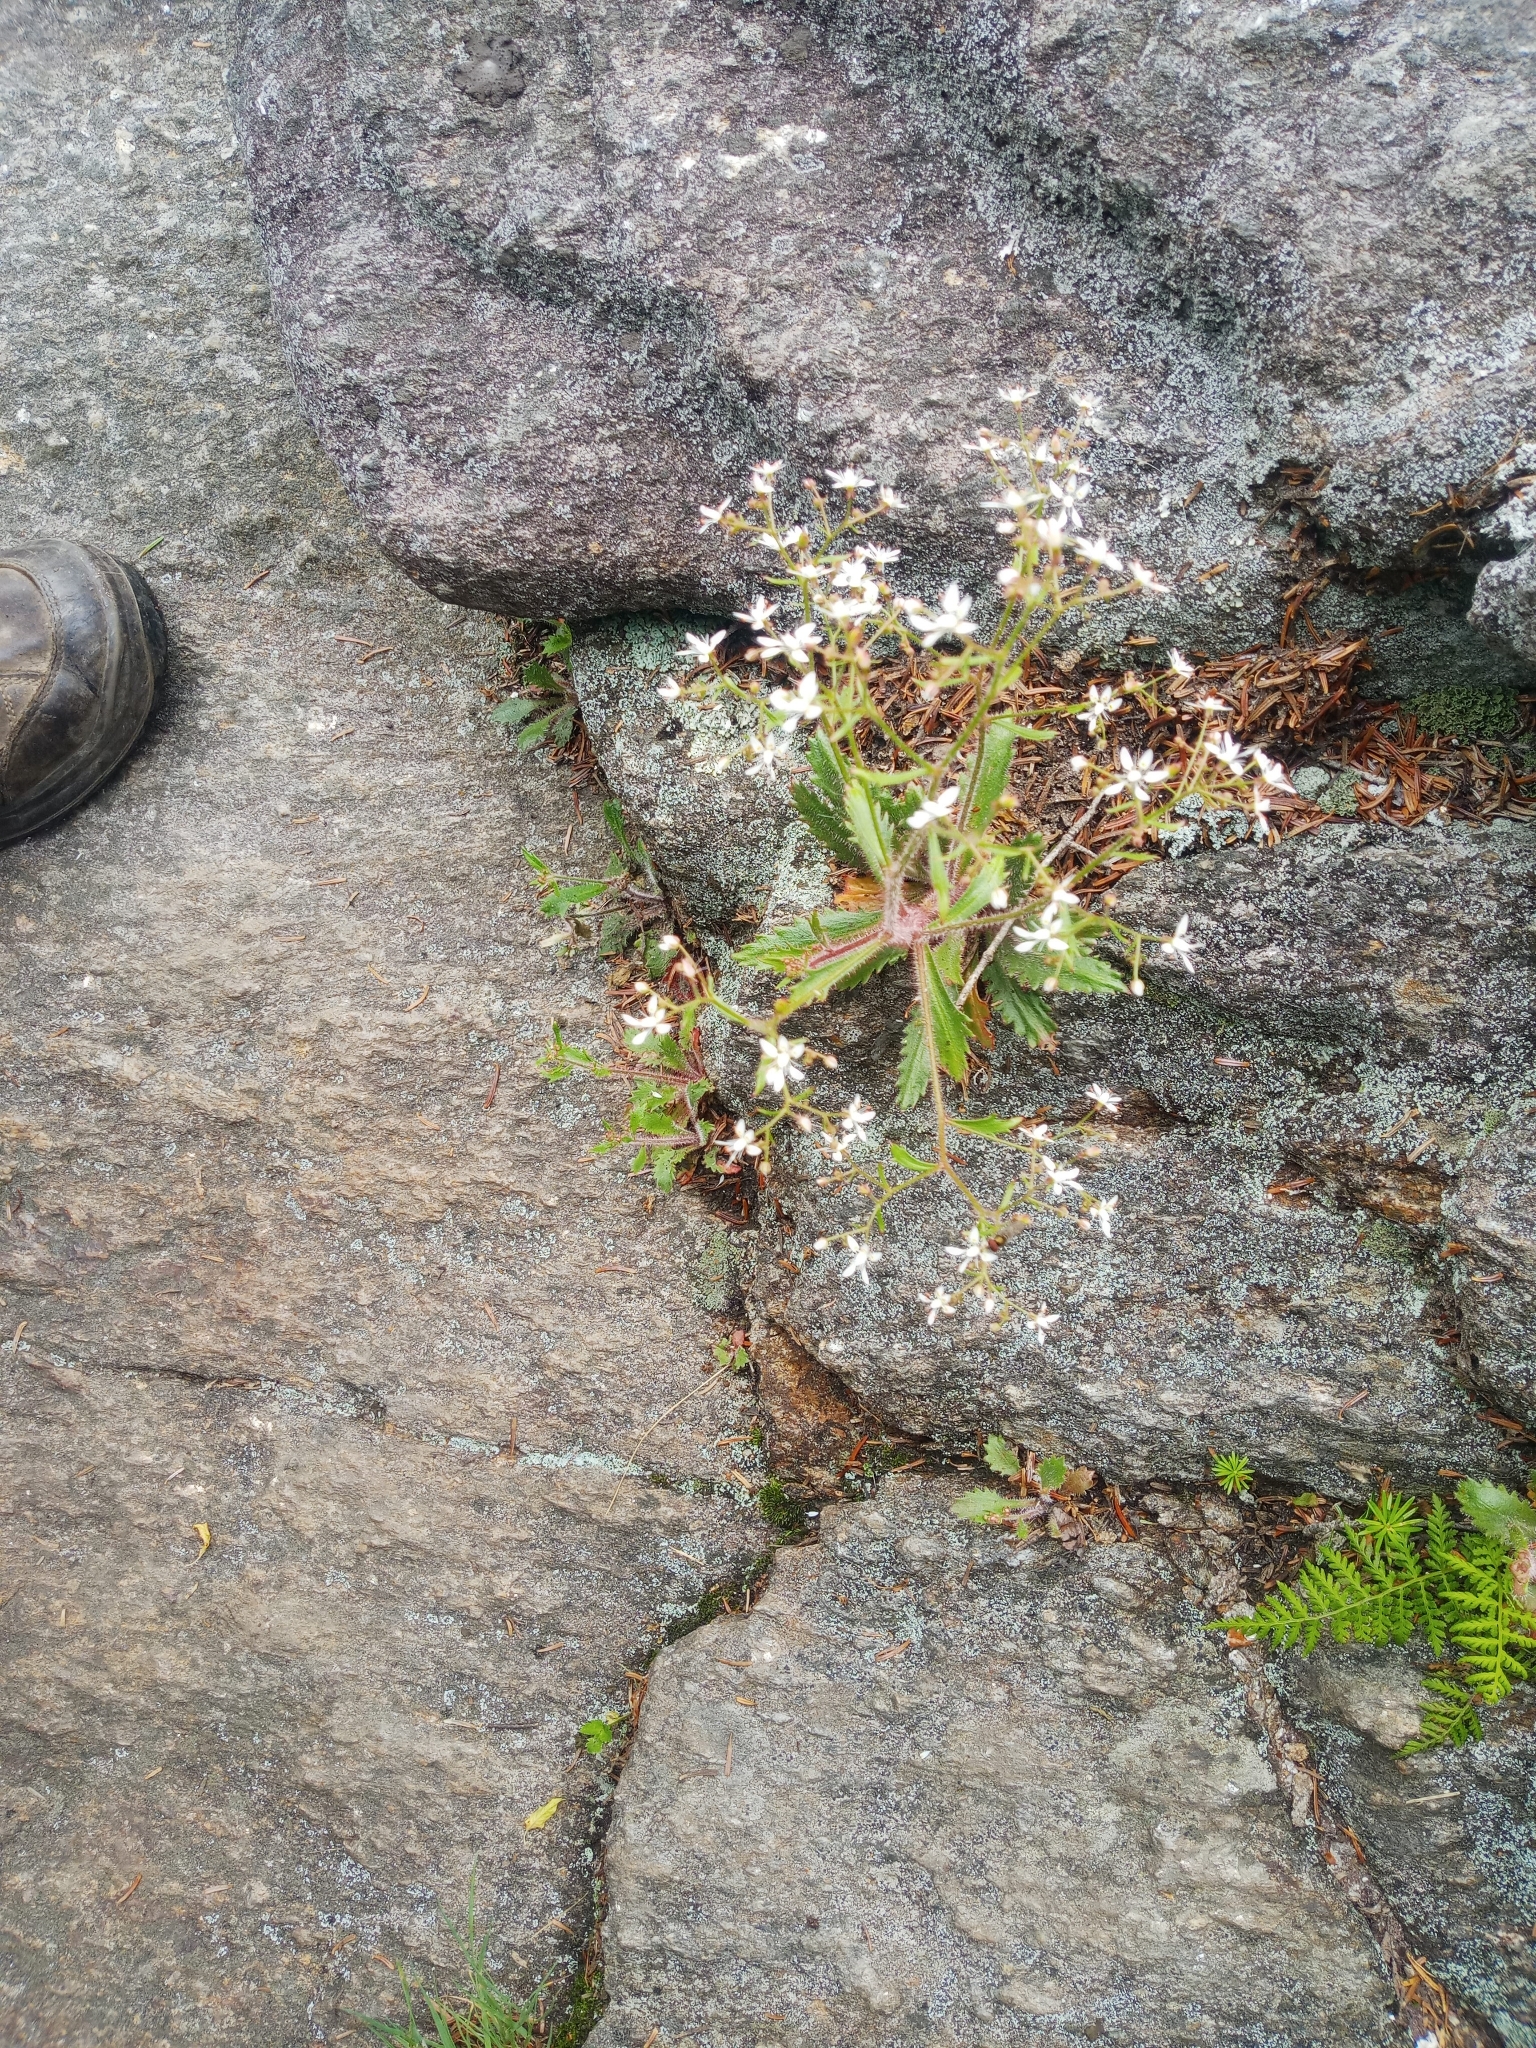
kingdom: Plantae
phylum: Tracheophyta
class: Magnoliopsida
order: Saxifragales
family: Saxifragaceae
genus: Micranthes
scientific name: Micranthes petiolaris
